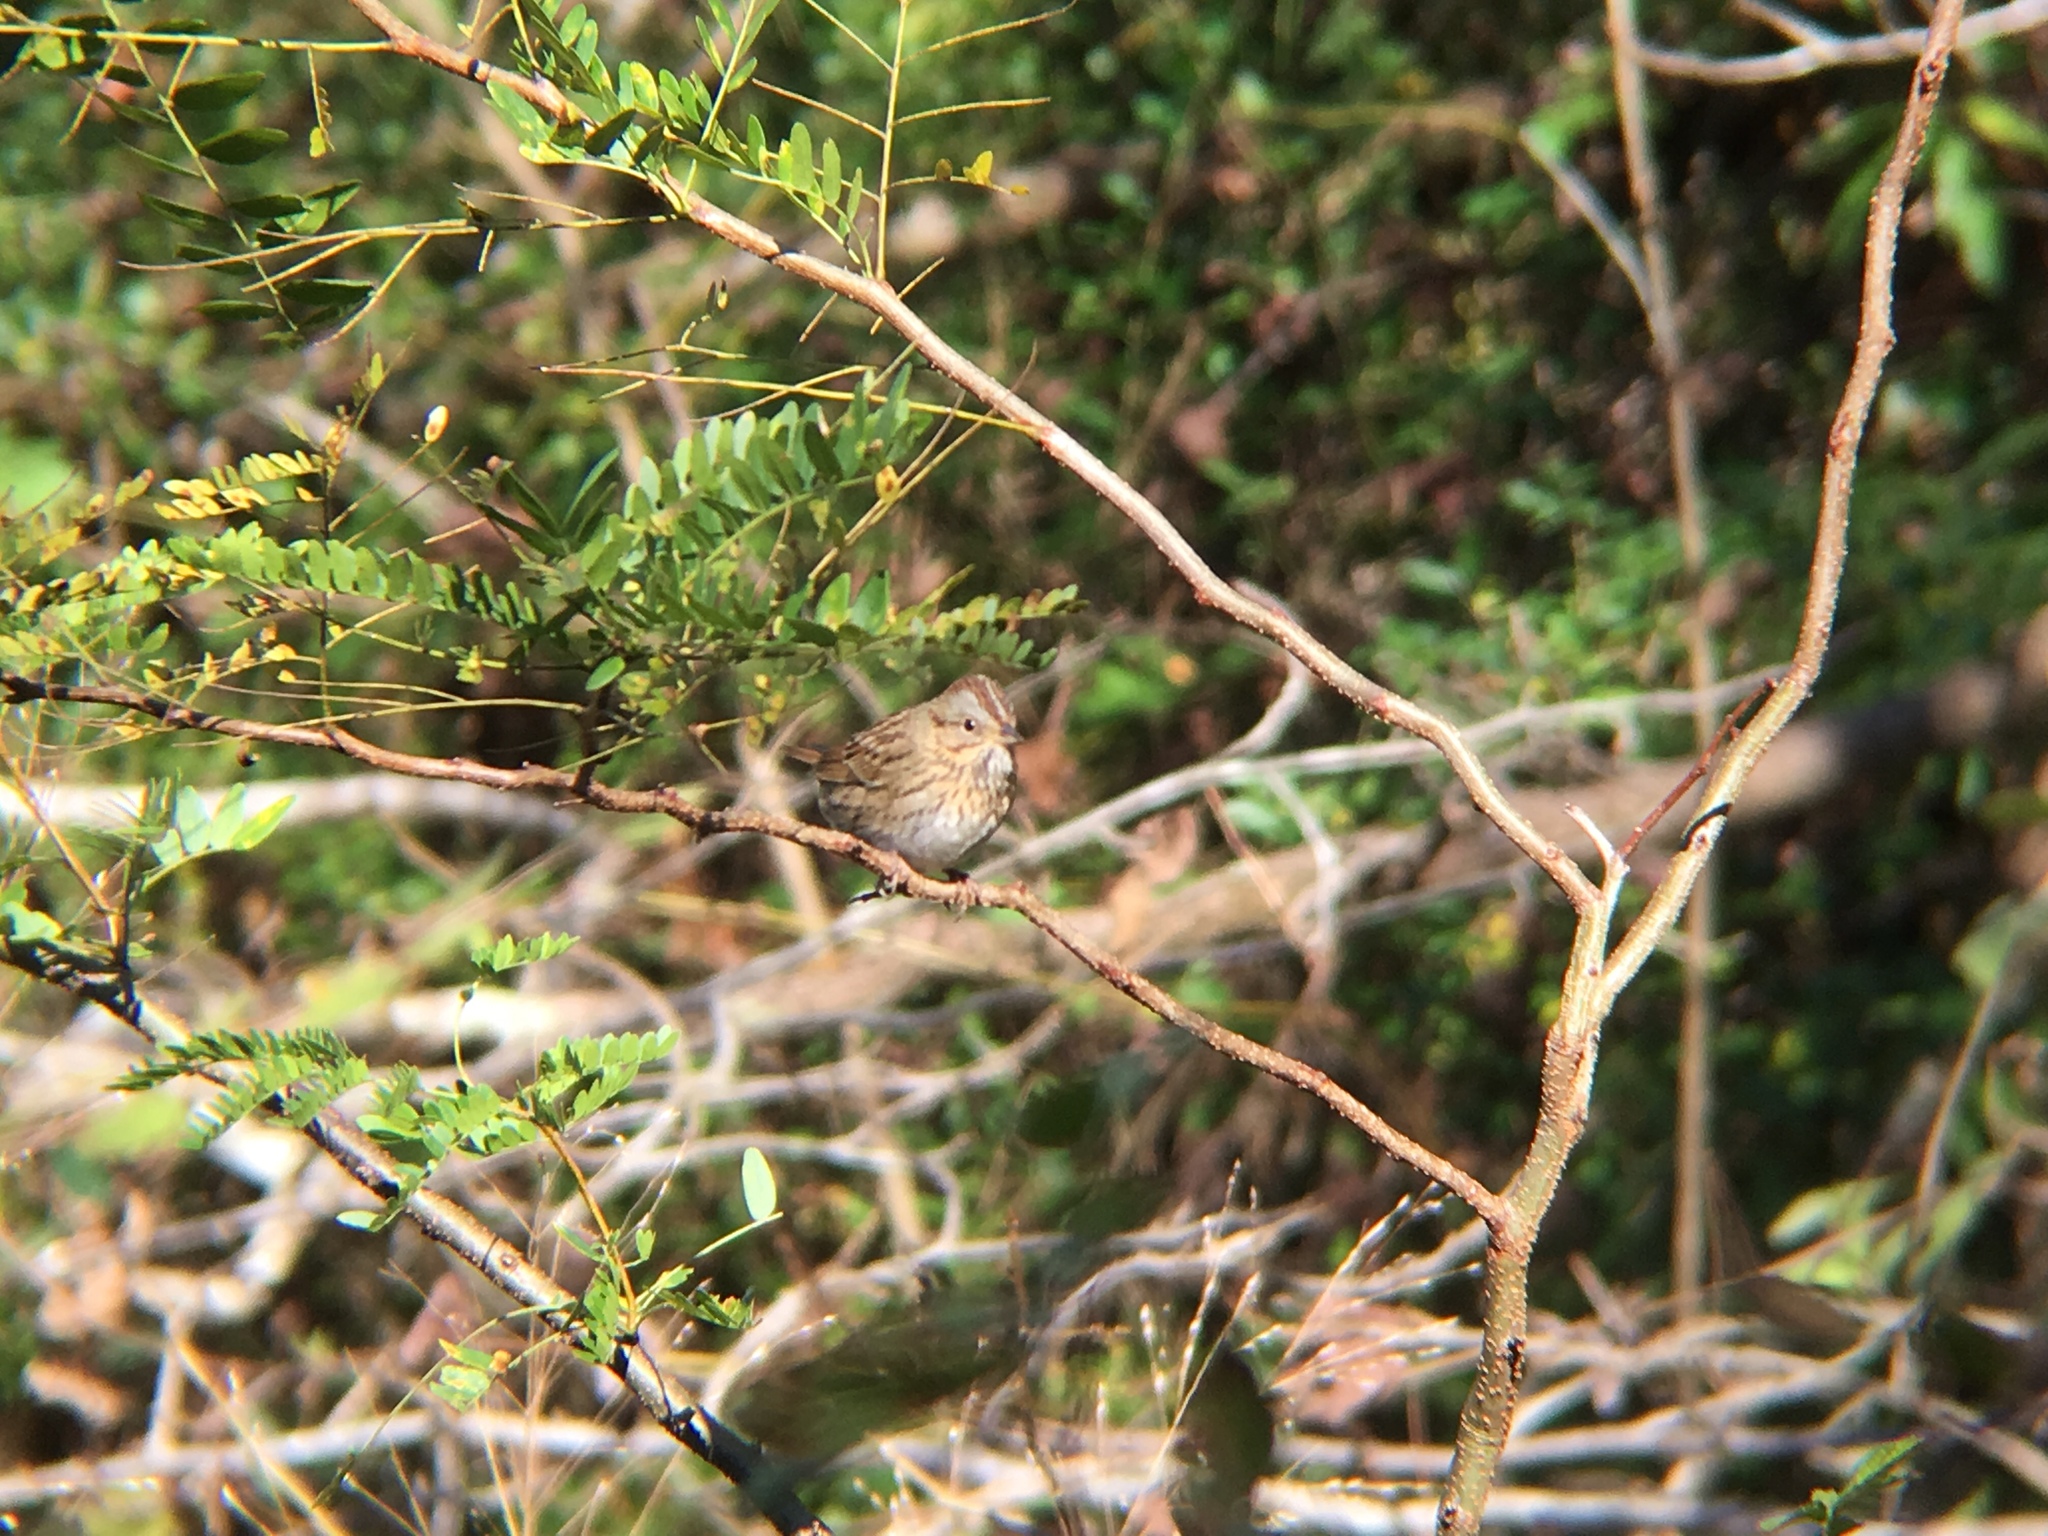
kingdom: Animalia
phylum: Chordata
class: Aves
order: Passeriformes
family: Passerellidae
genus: Melospiza
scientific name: Melospiza lincolnii
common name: Lincoln's sparrow
